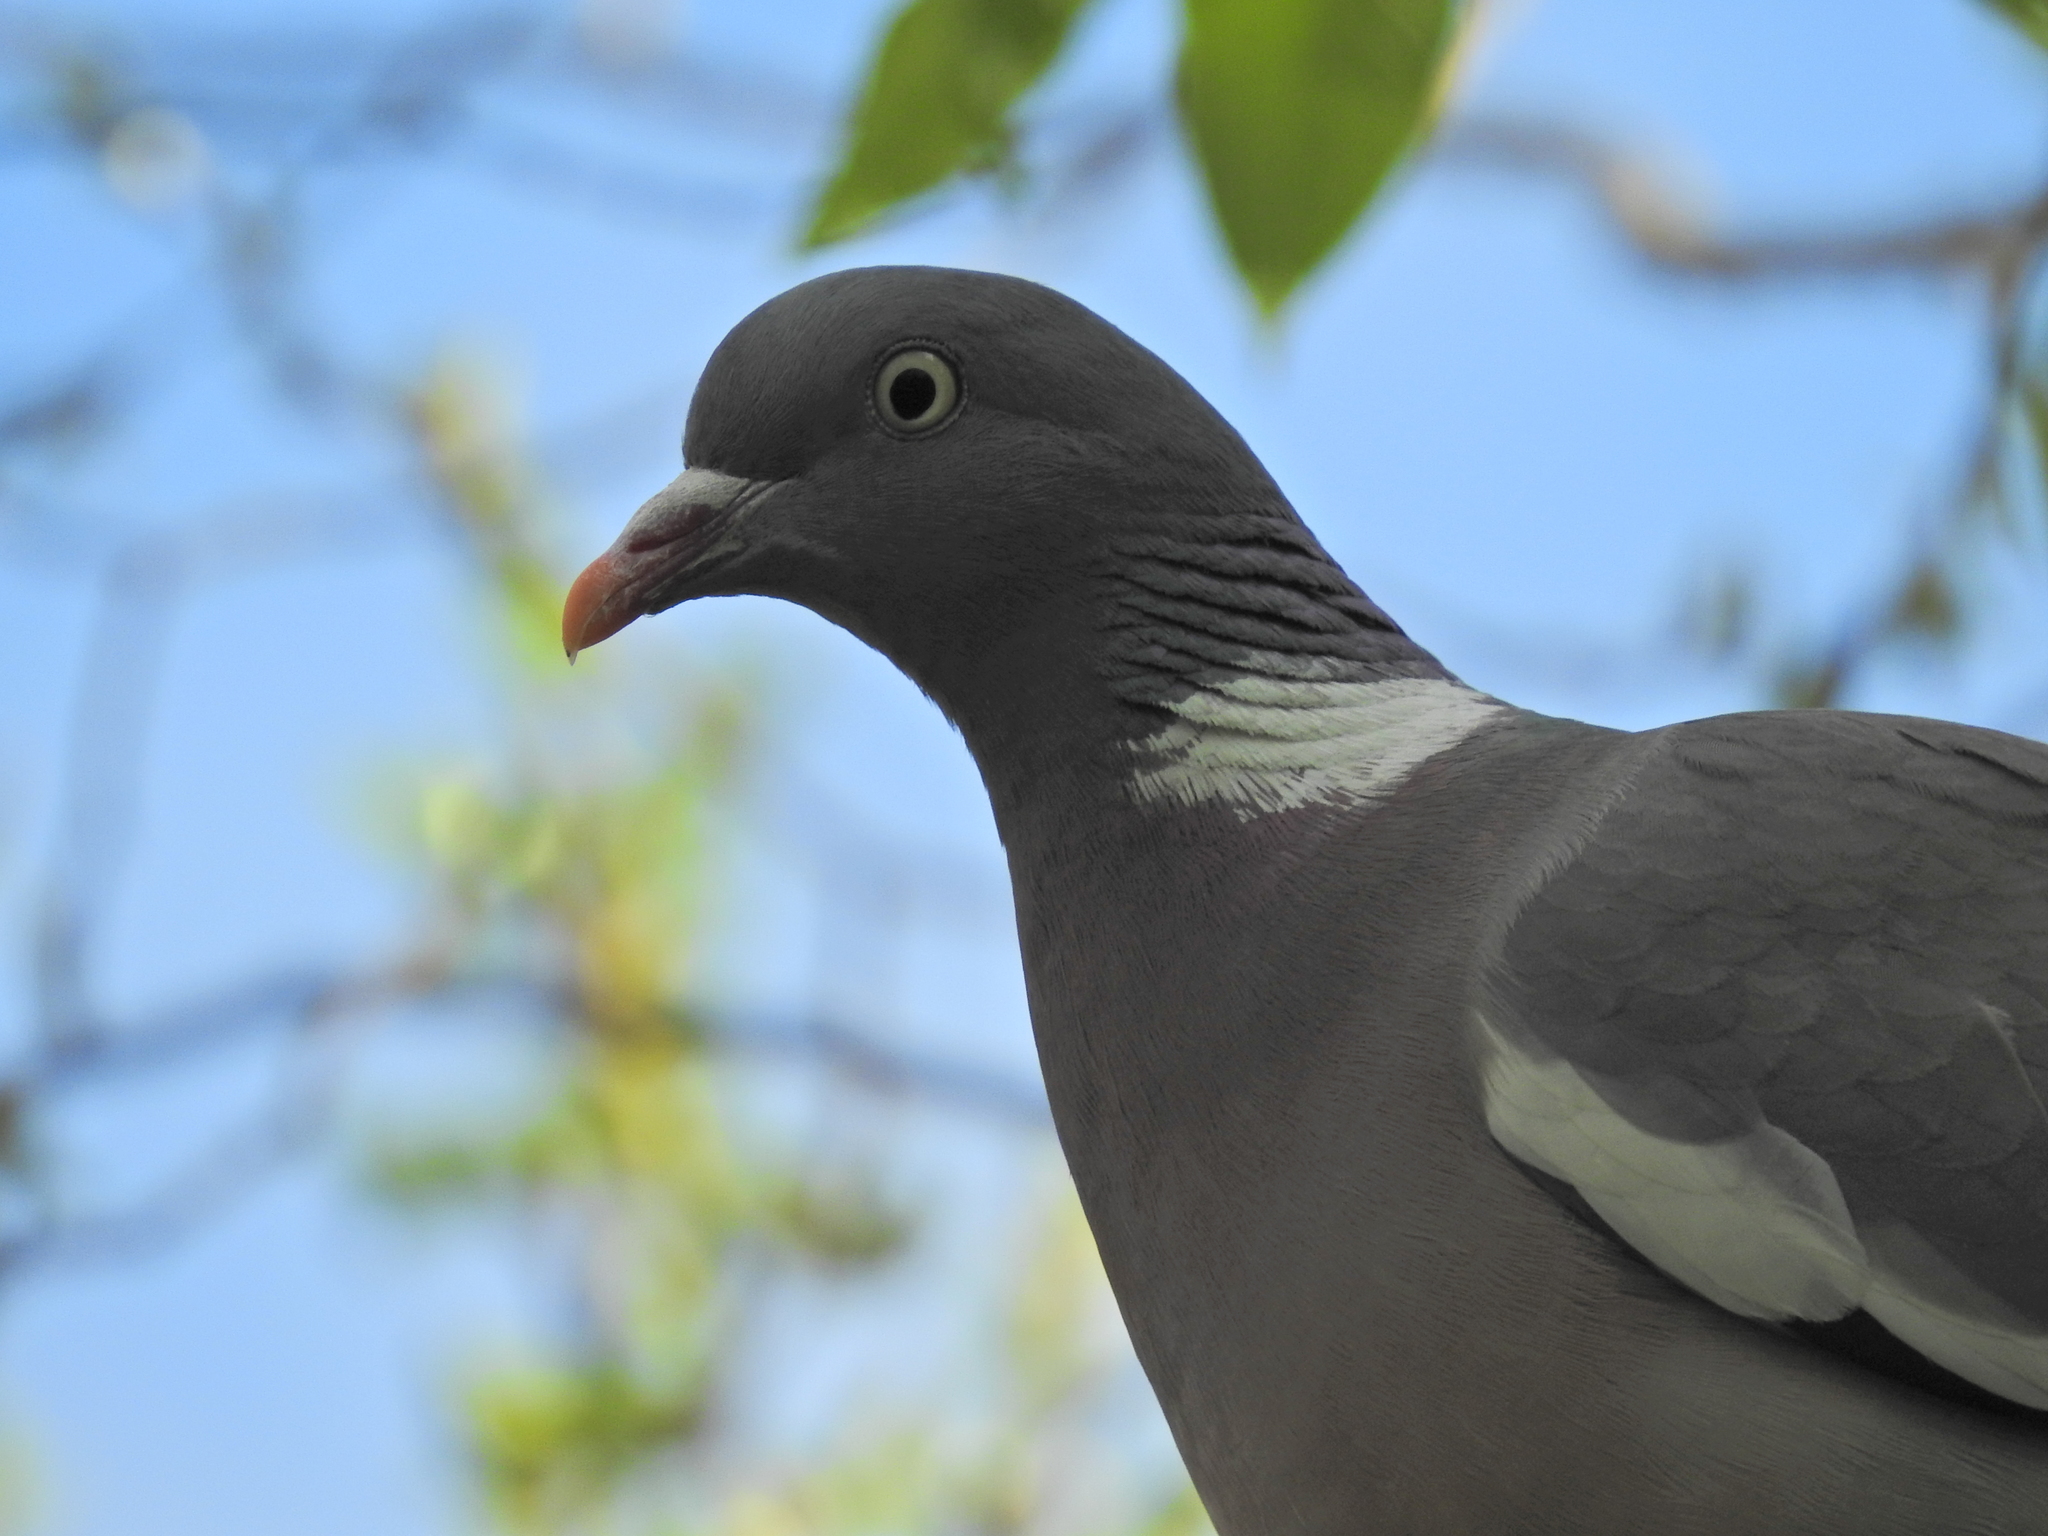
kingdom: Animalia
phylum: Chordata
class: Aves
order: Columbiformes
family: Columbidae
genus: Columba
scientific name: Columba palumbus
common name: Common wood pigeon
